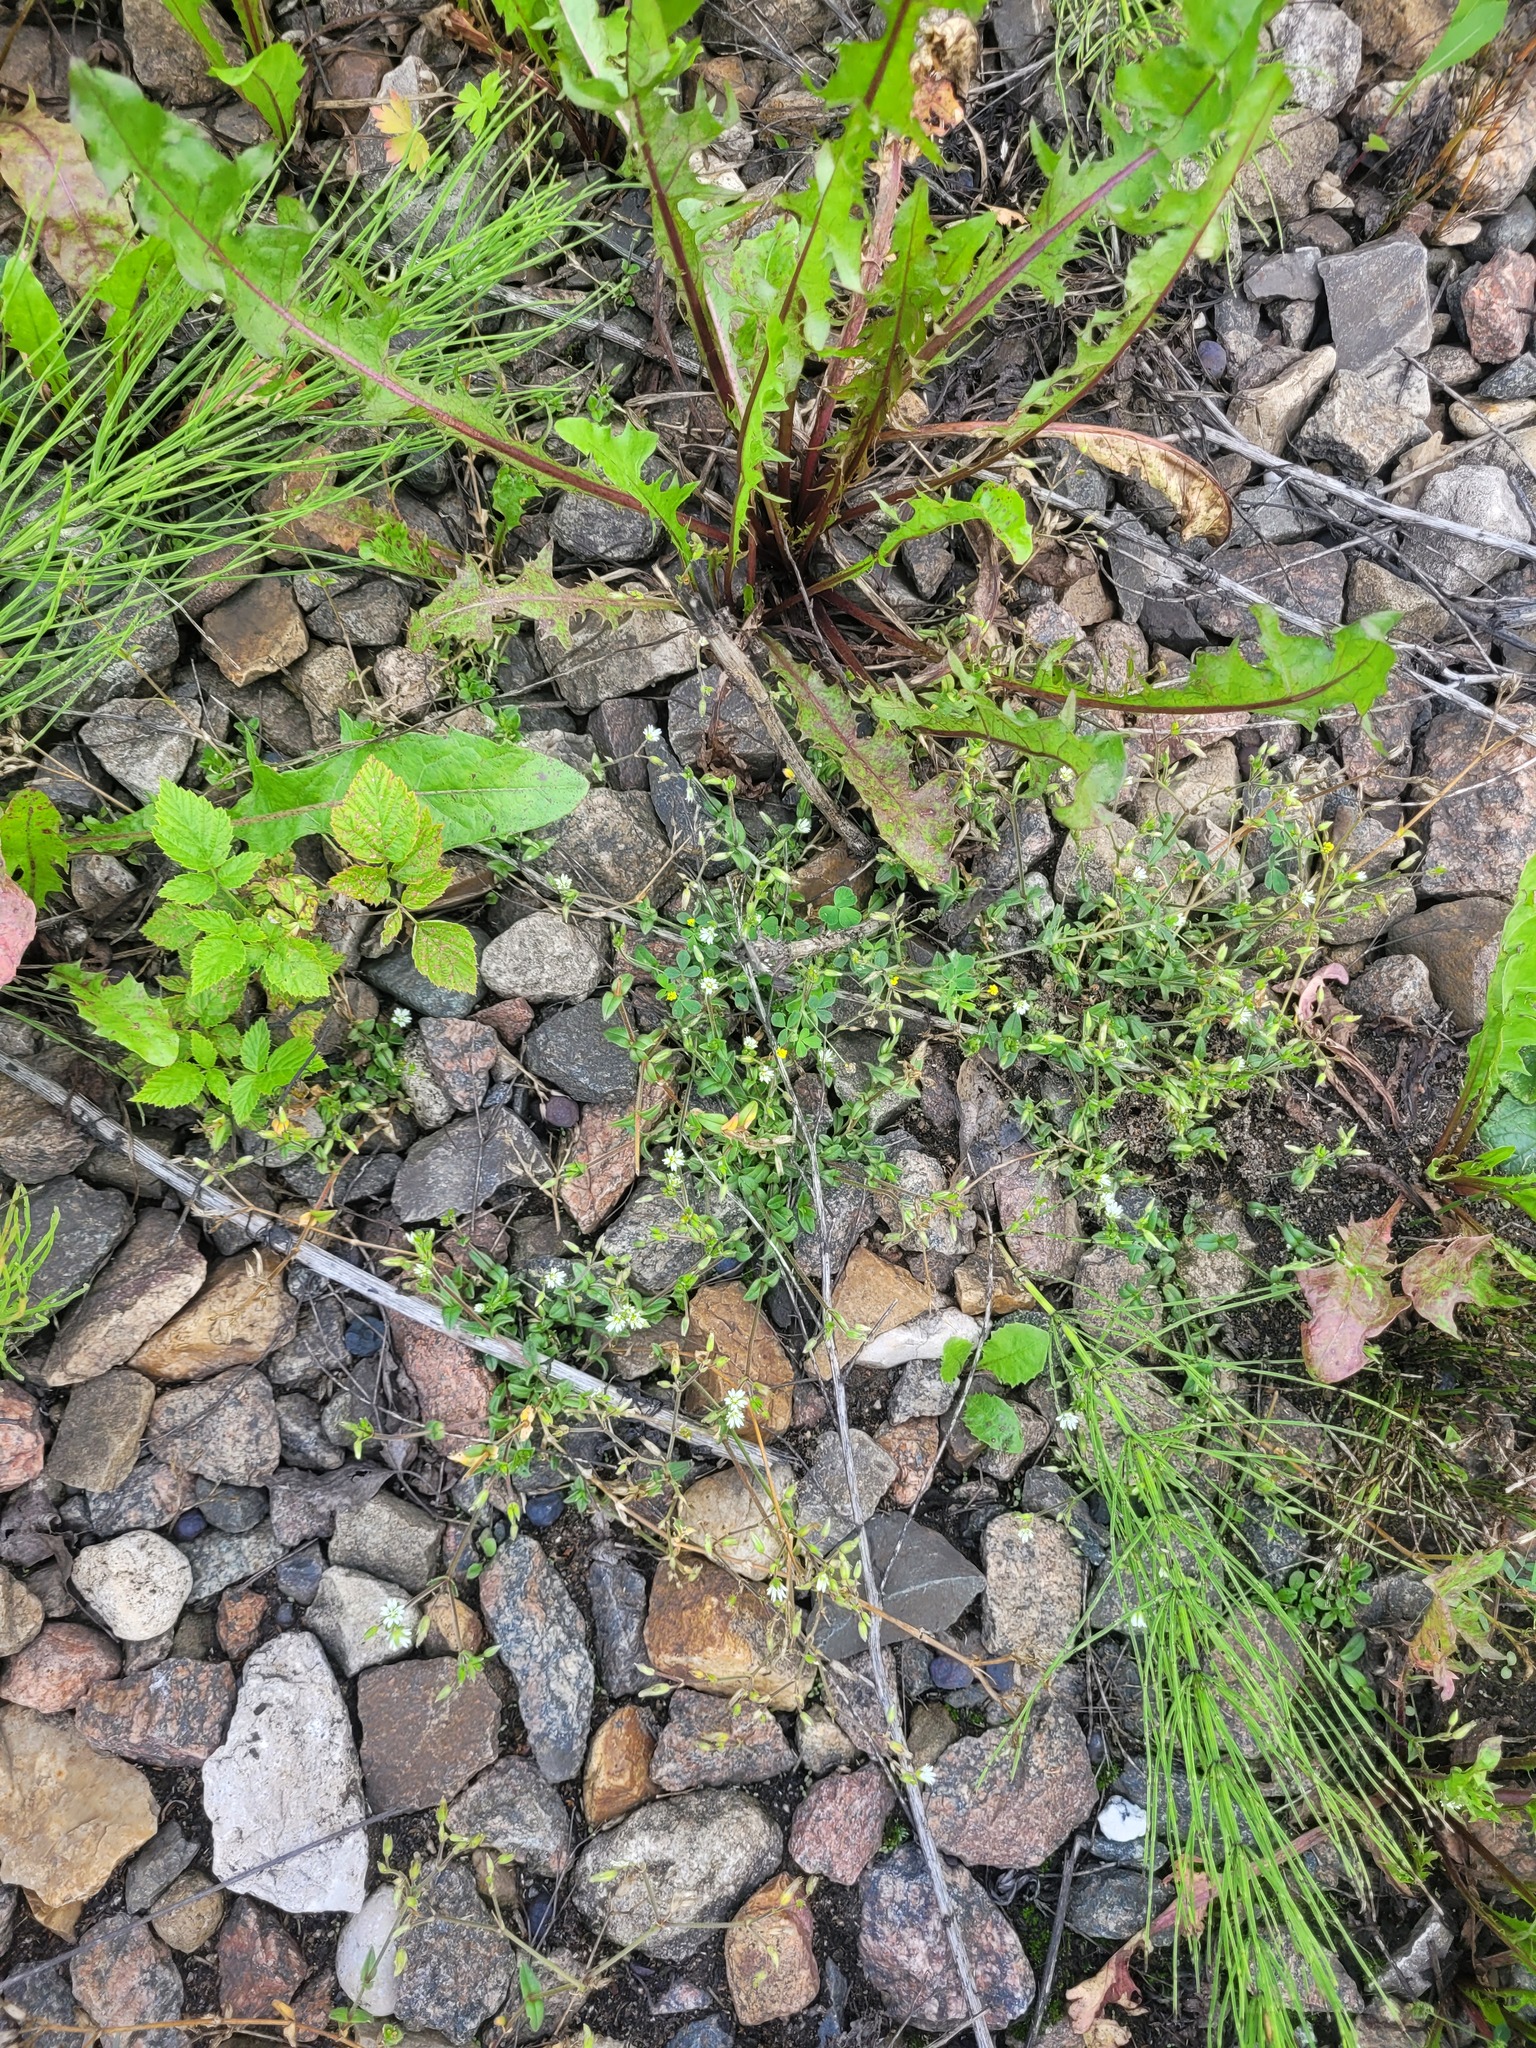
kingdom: Plantae
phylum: Tracheophyta
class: Magnoliopsida
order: Caryophyllales
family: Caryophyllaceae
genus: Cerastium
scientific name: Cerastium holosteoides
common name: Big chickweed
